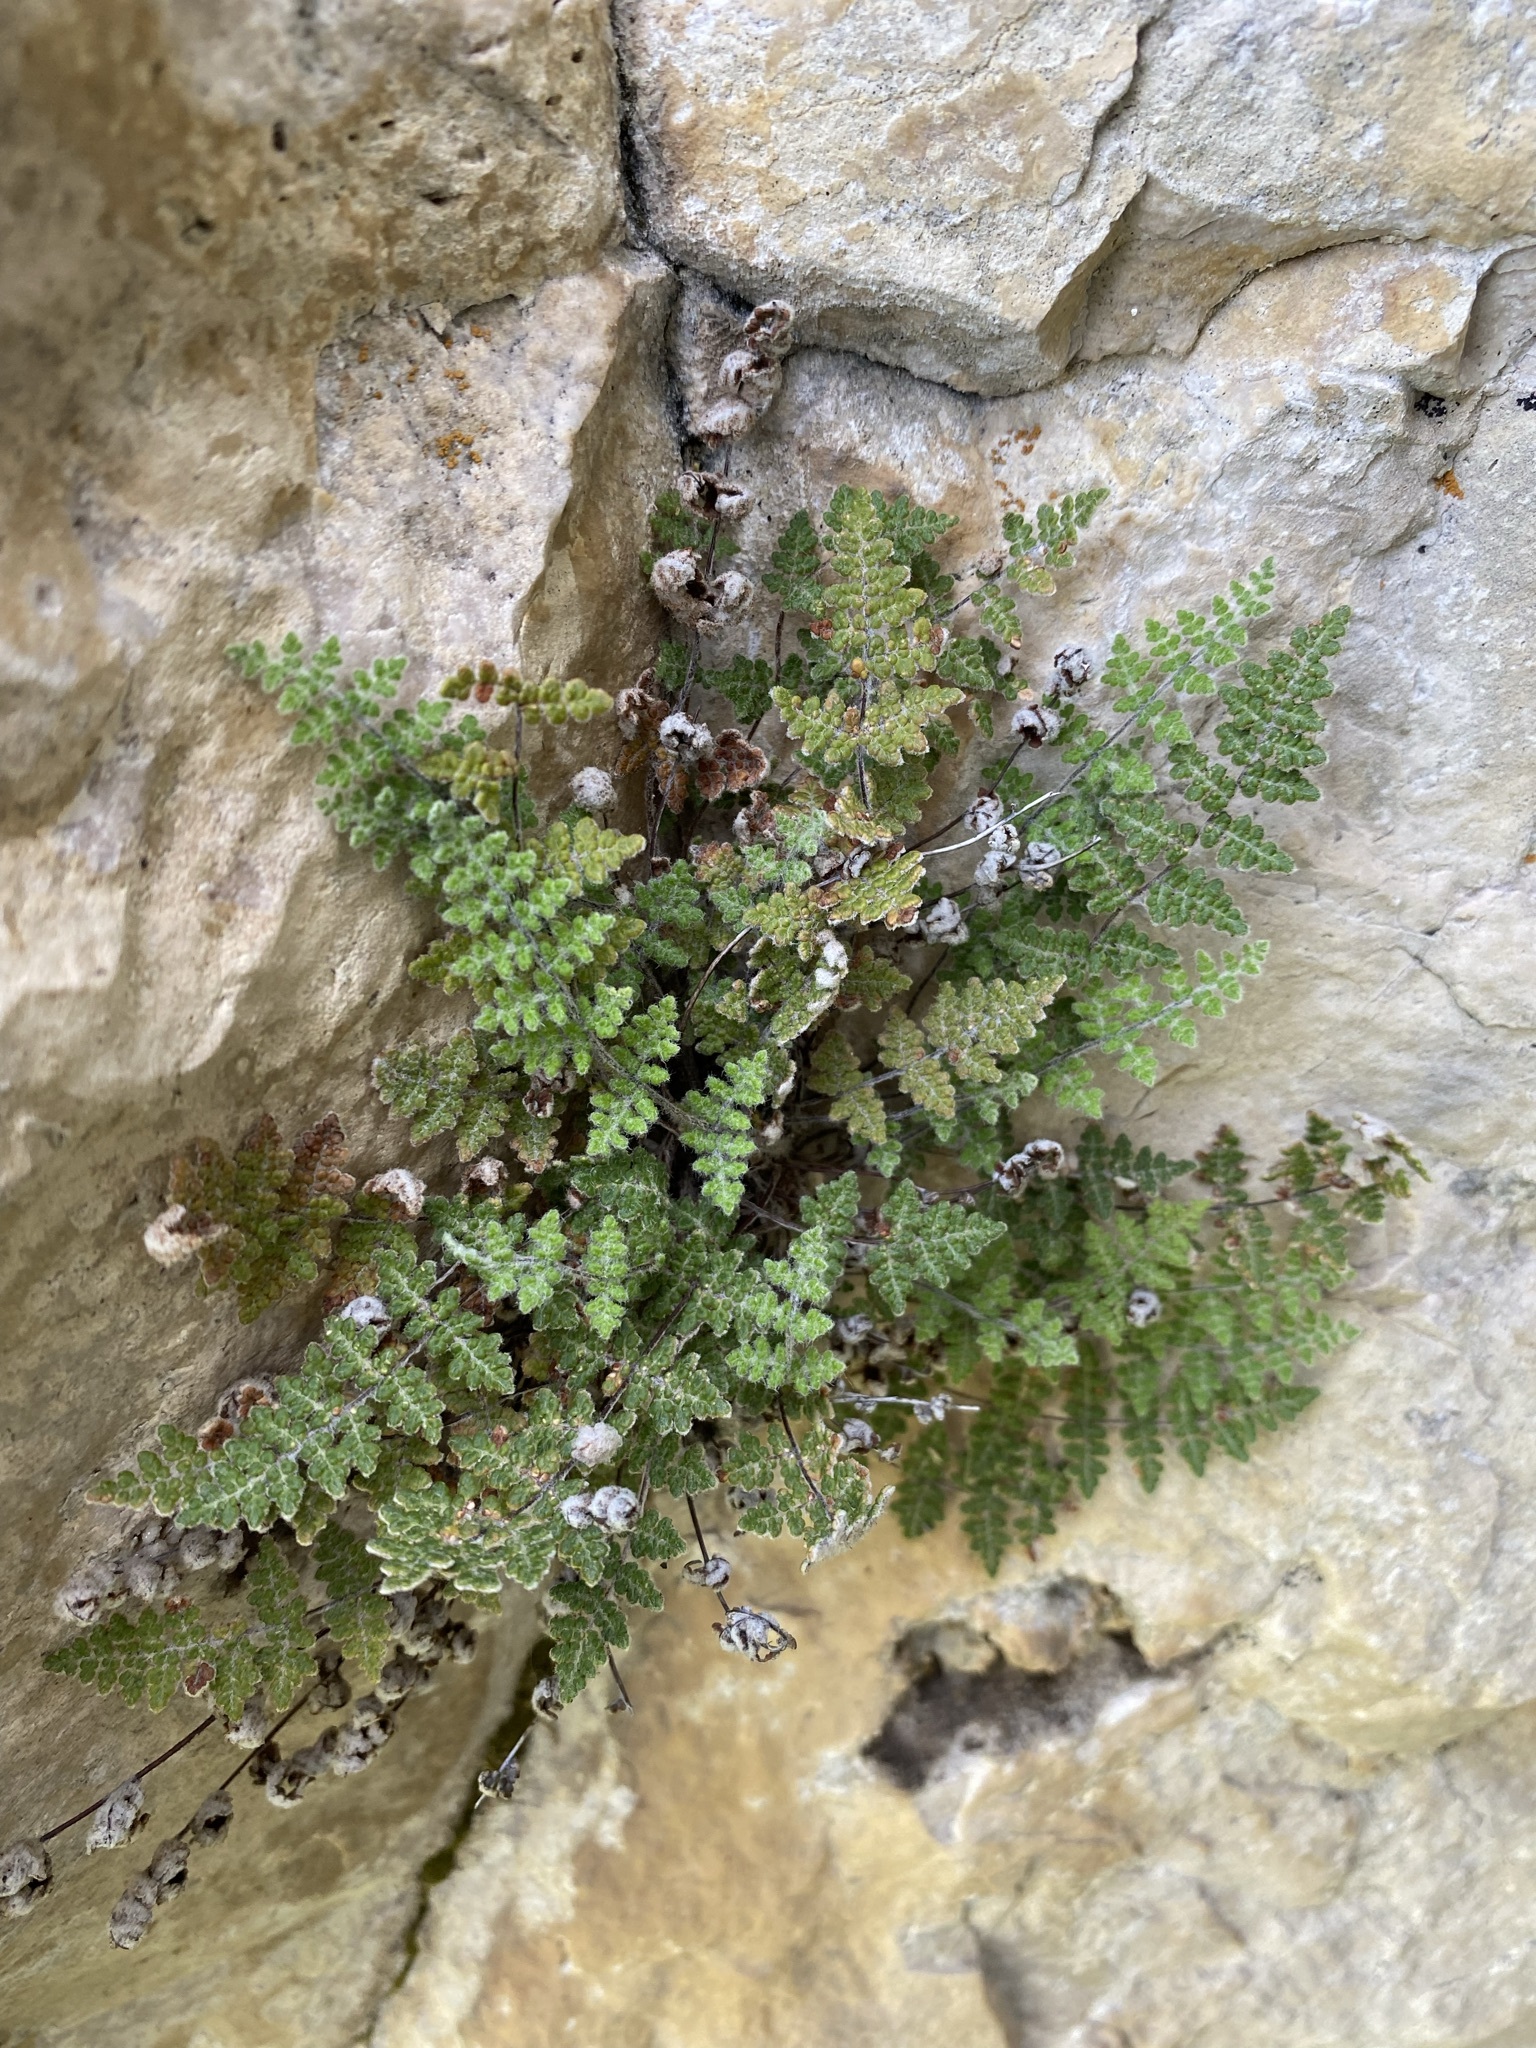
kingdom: Plantae
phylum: Tracheophyta
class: Polypodiopsida
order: Polypodiales
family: Pteridaceae
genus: Myriopteris
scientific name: Myriopteris gracilis
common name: Fee's lip fern
